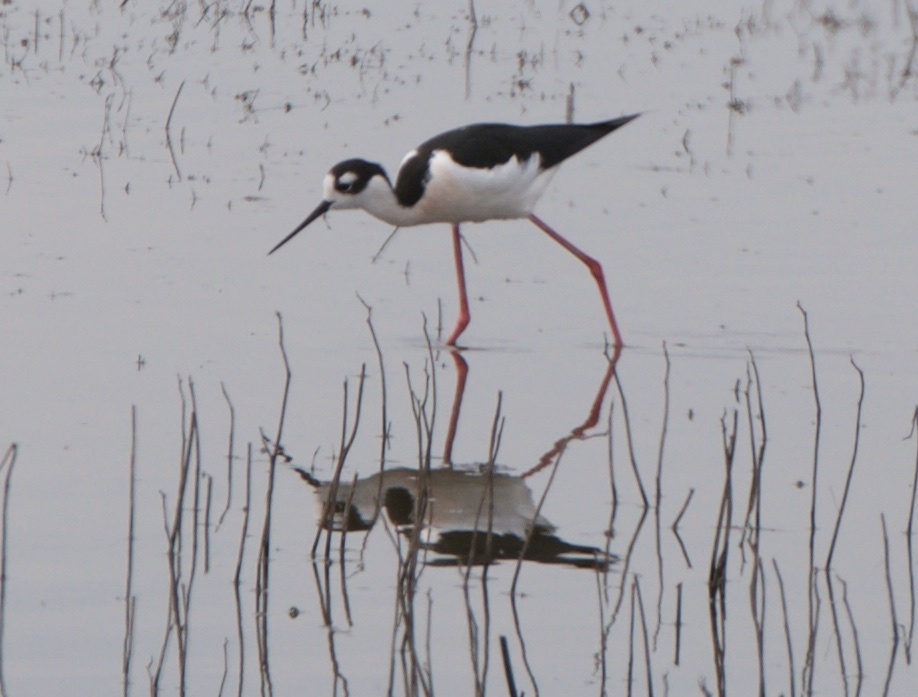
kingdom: Animalia
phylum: Chordata
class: Aves
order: Charadriiformes
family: Recurvirostridae
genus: Himantopus
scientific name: Himantopus mexicanus
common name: Black-necked stilt
